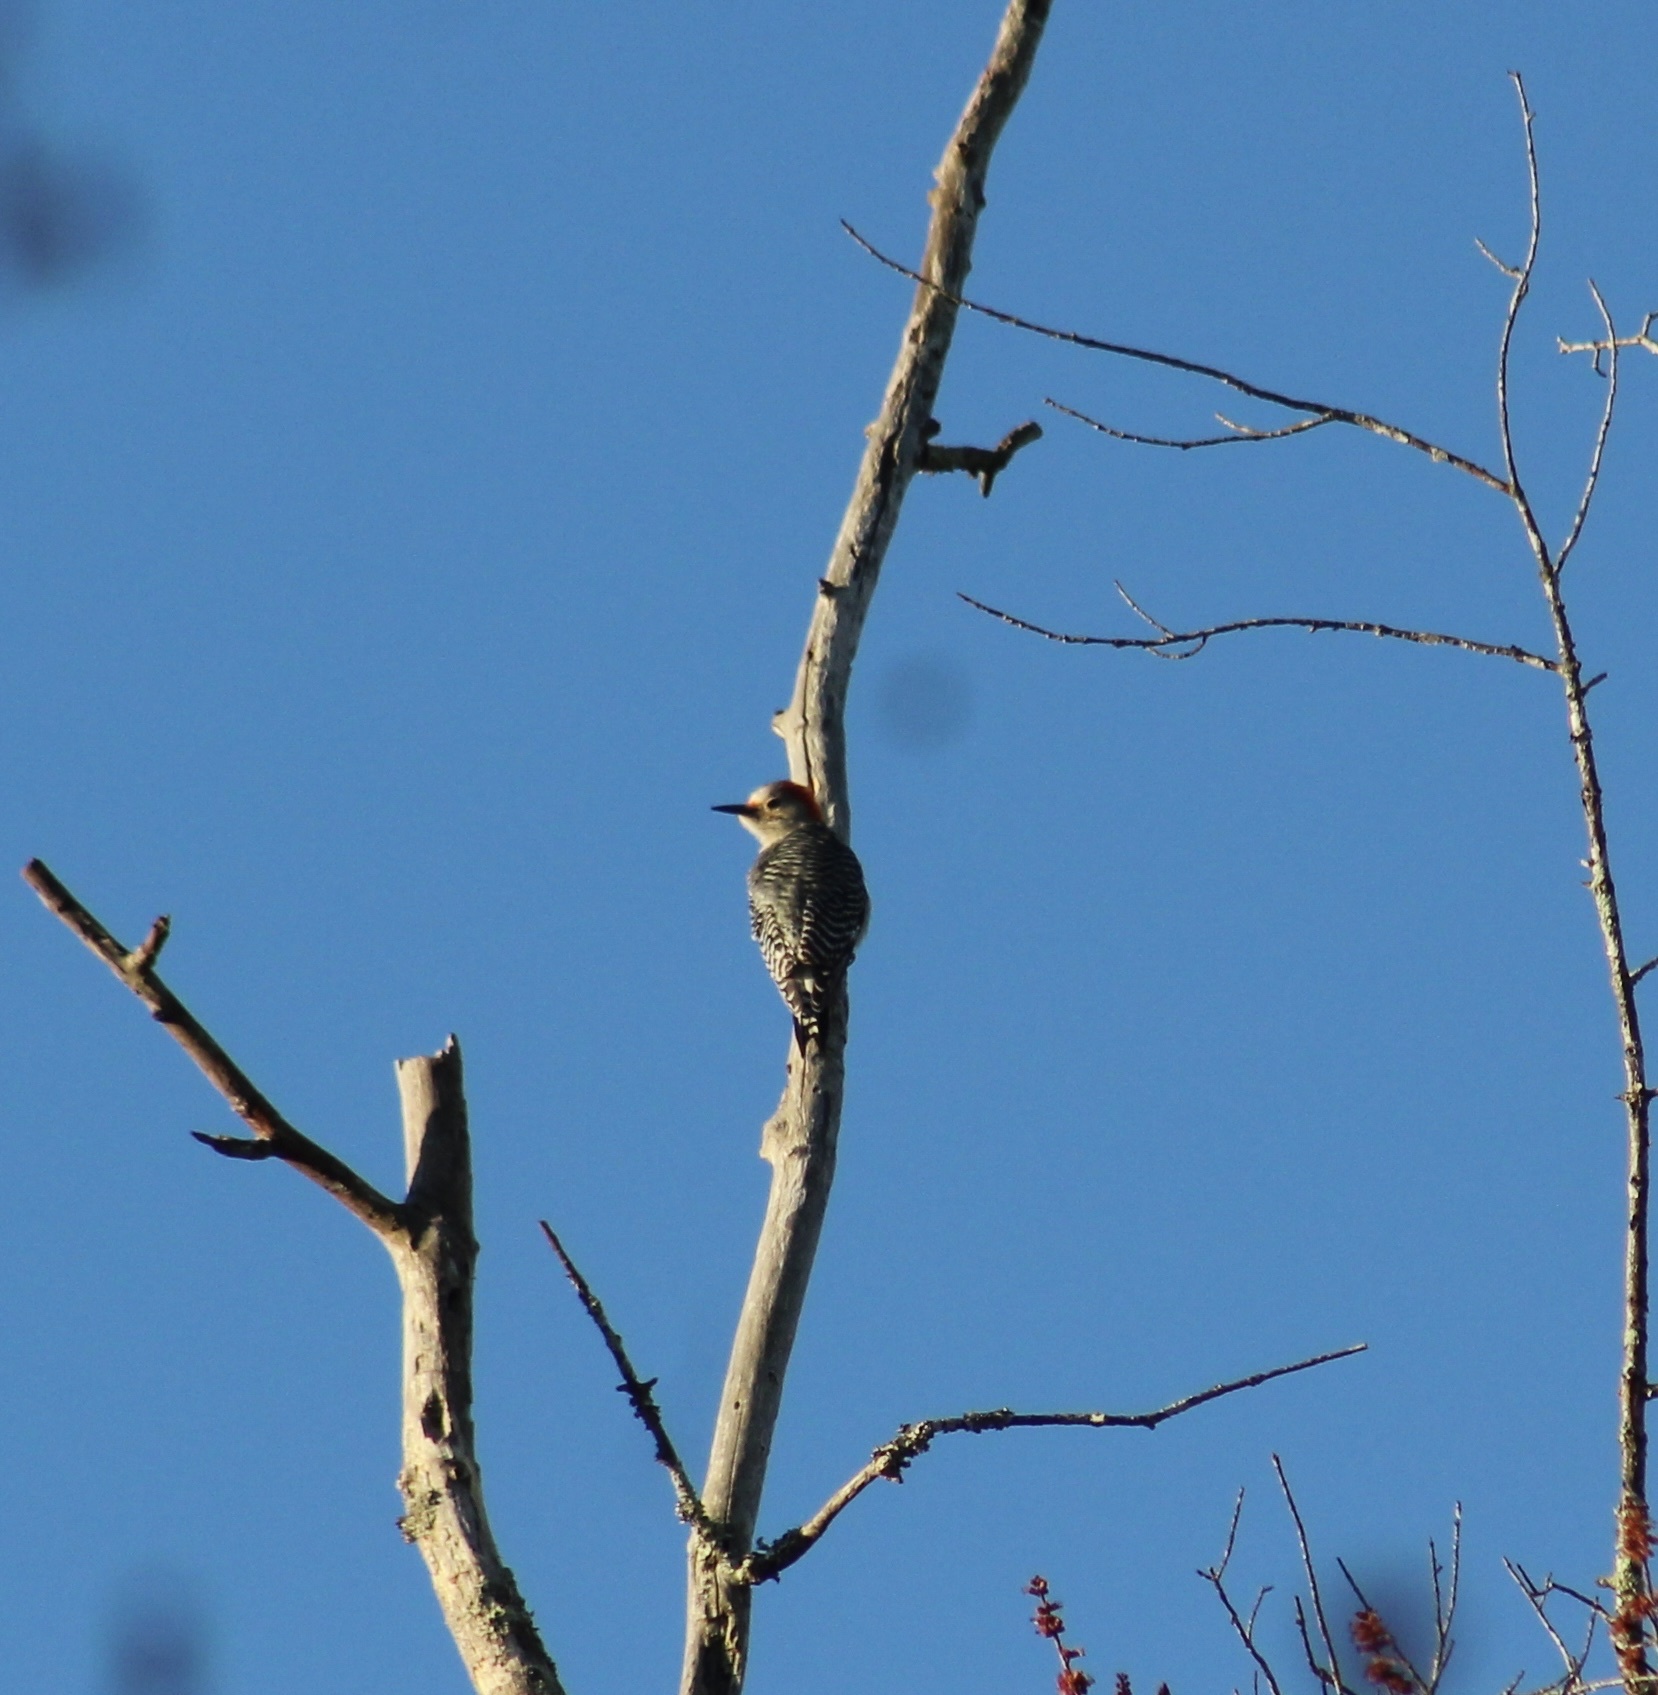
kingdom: Animalia
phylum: Chordata
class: Aves
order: Piciformes
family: Picidae
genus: Melanerpes
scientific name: Melanerpes carolinus
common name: Red-bellied woodpecker
